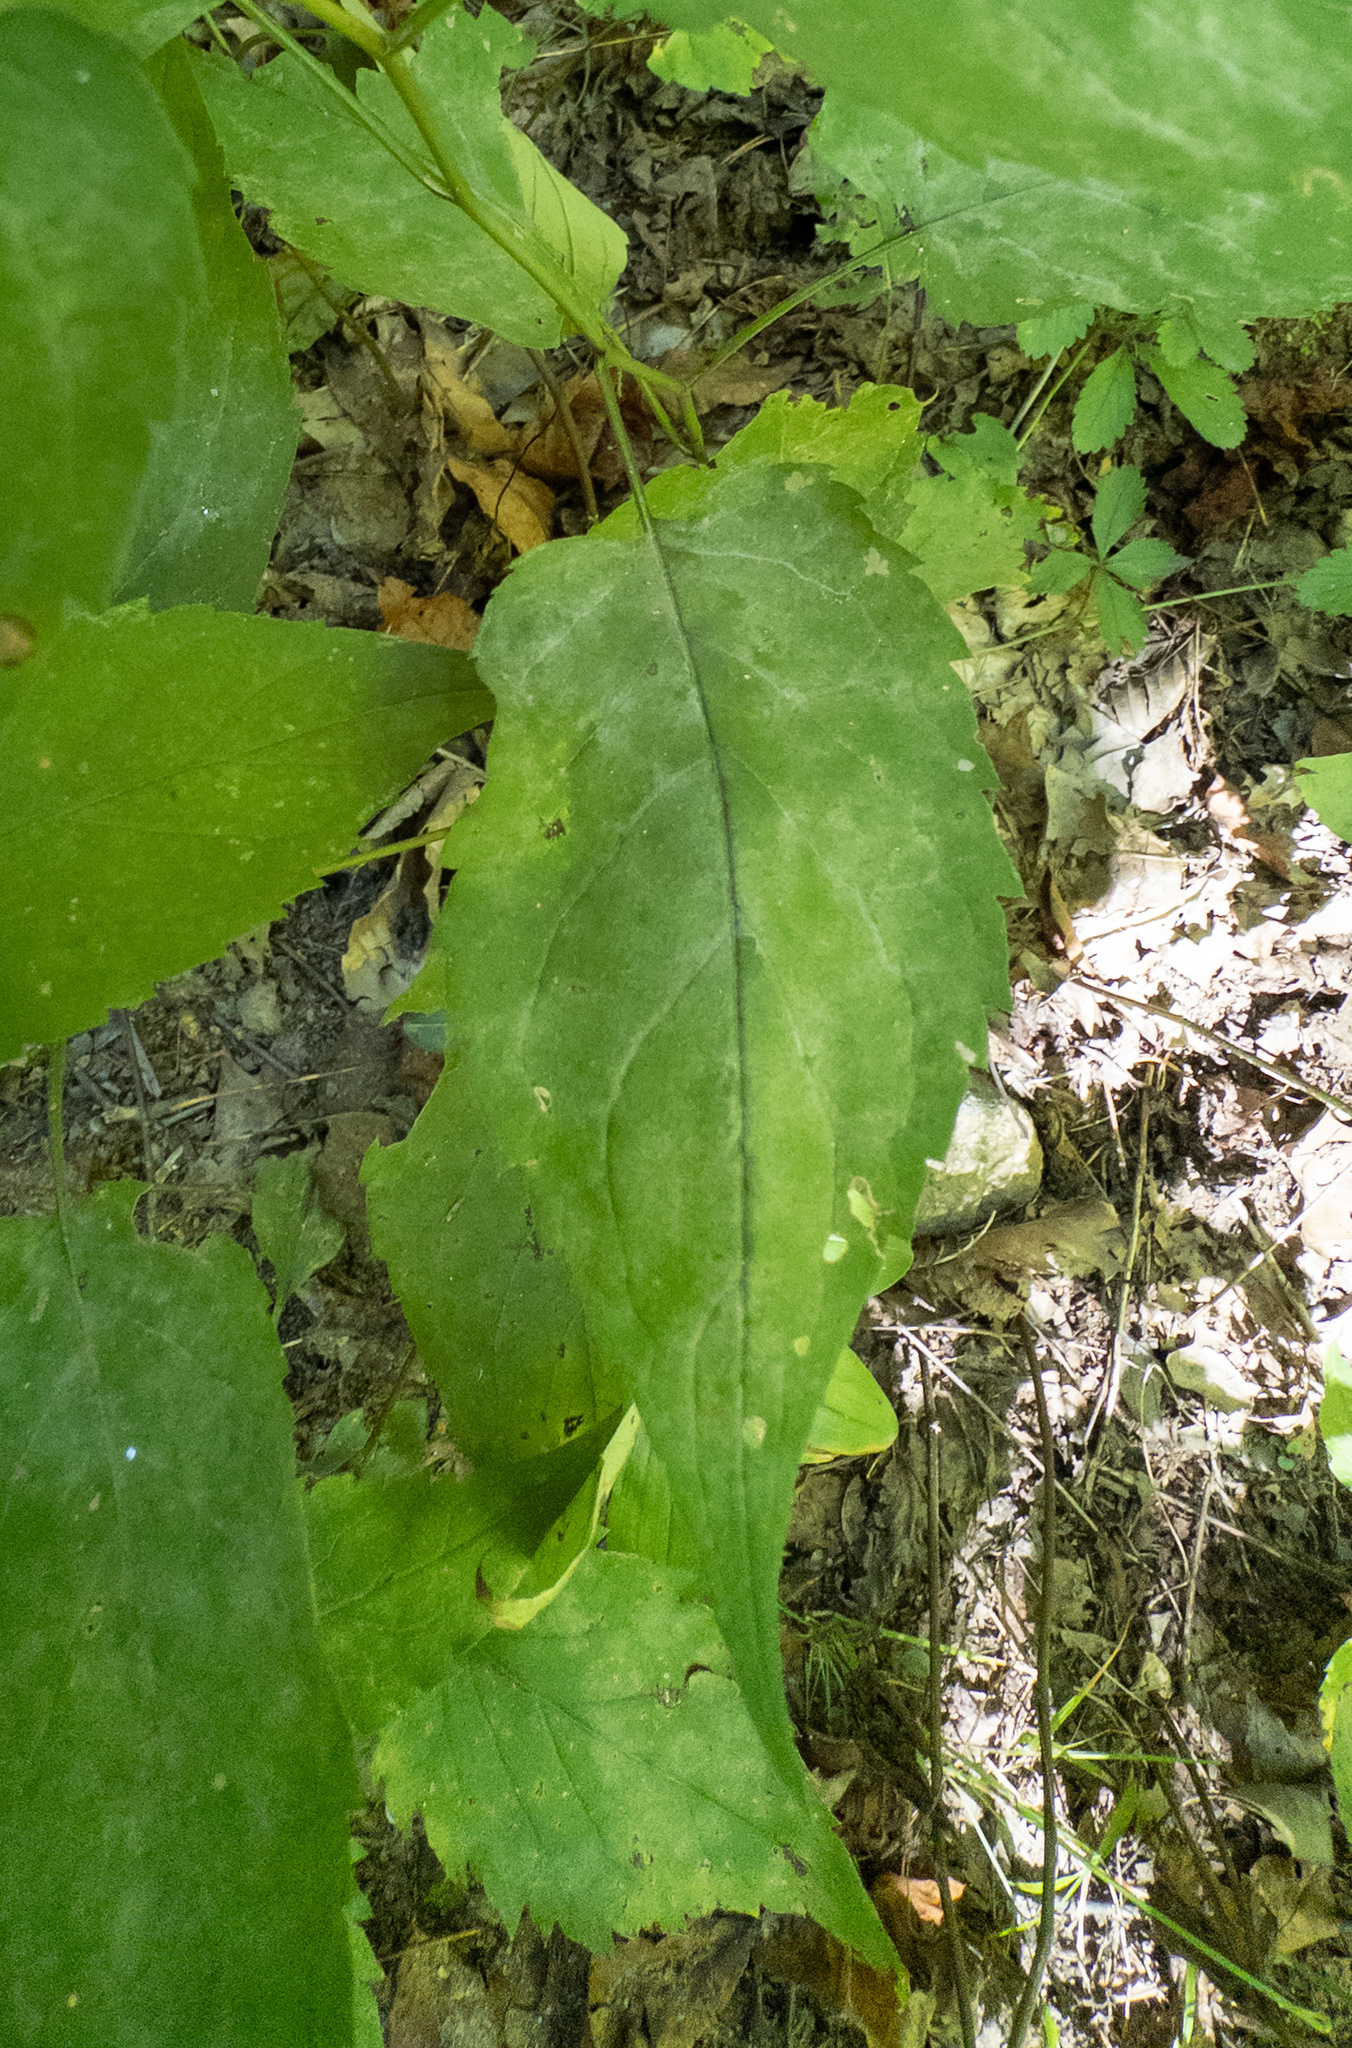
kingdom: Plantae
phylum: Tracheophyta
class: Magnoliopsida
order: Asterales
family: Asteraceae
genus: Eurybia
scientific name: Eurybia divaricata
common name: White wood aster
